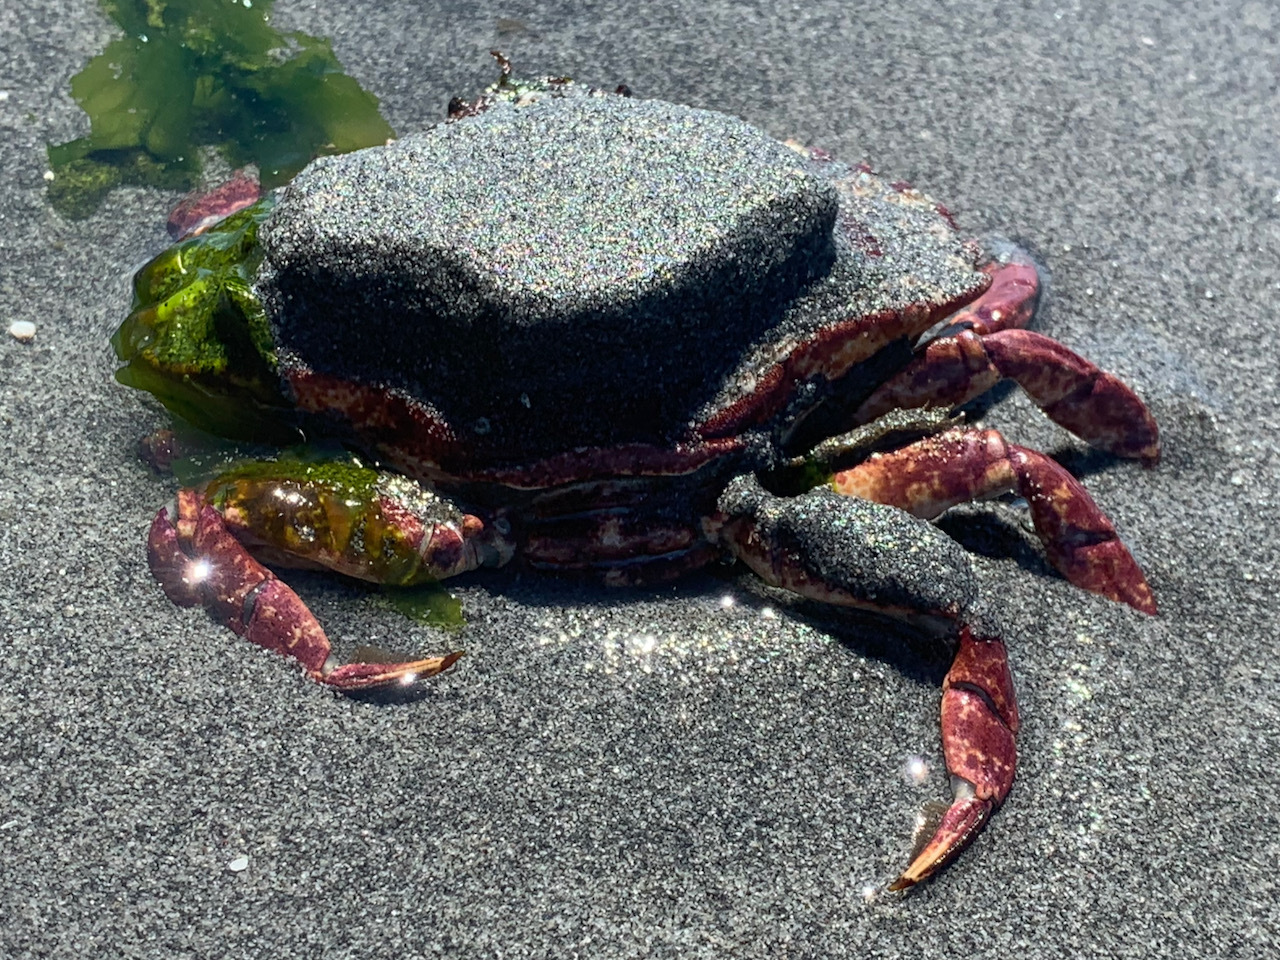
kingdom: Animalia
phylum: Arthropoda
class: Malacostraca
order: Decapoda
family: Cancridae
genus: Cancer
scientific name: Cancer productus
